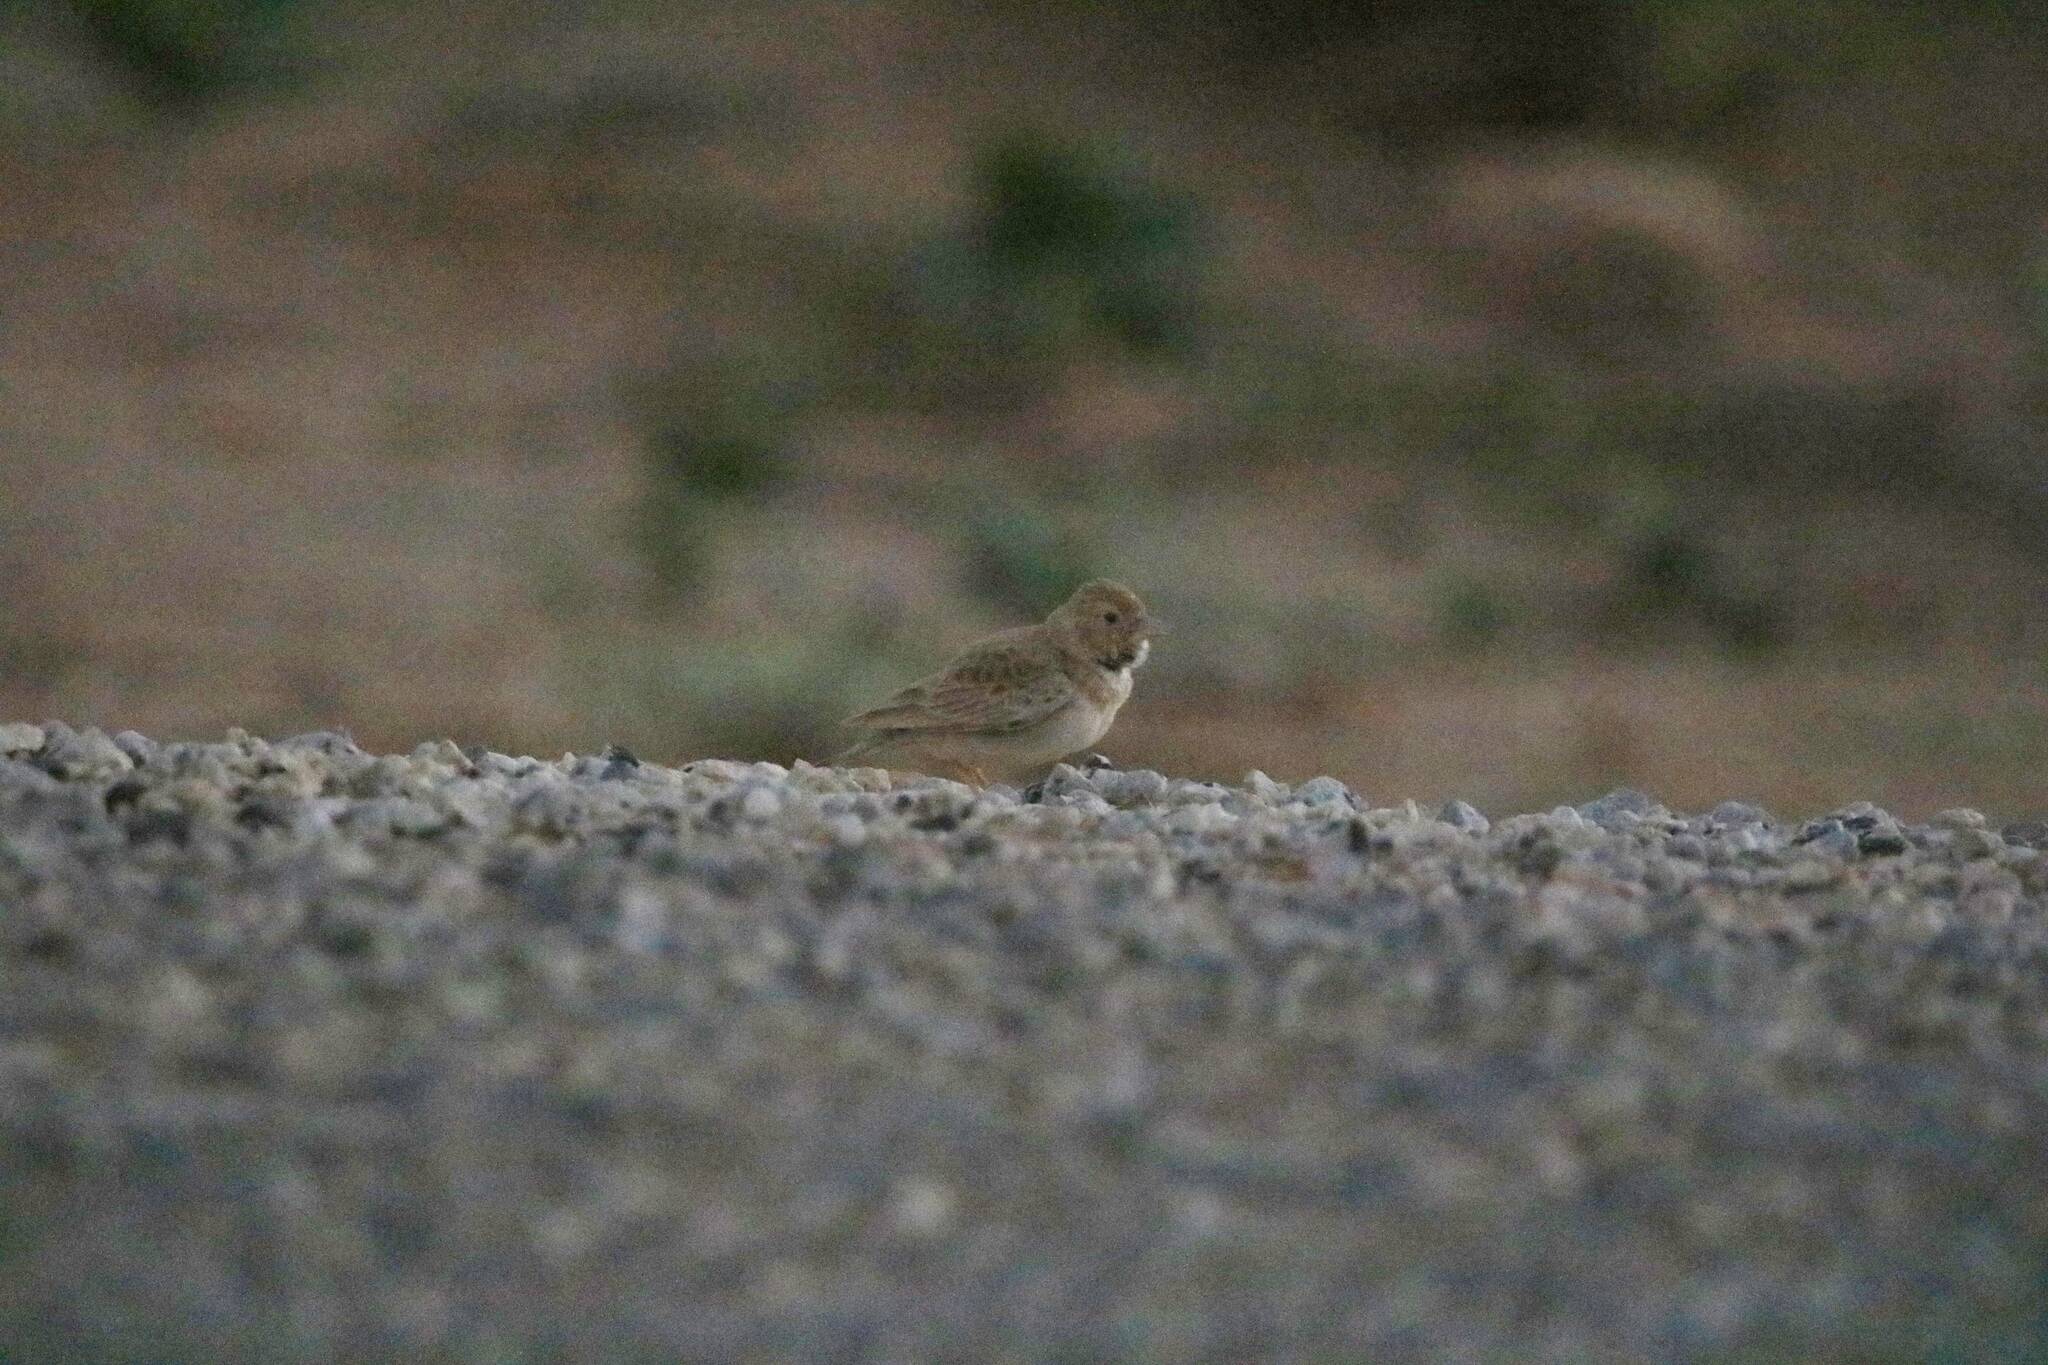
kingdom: Animalia
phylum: Chordata
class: Aves
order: Passeriformes
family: Alaudidae
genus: Eremopterix
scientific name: Eremopterix nigriceps
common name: Black-crowned sparrow-lark
